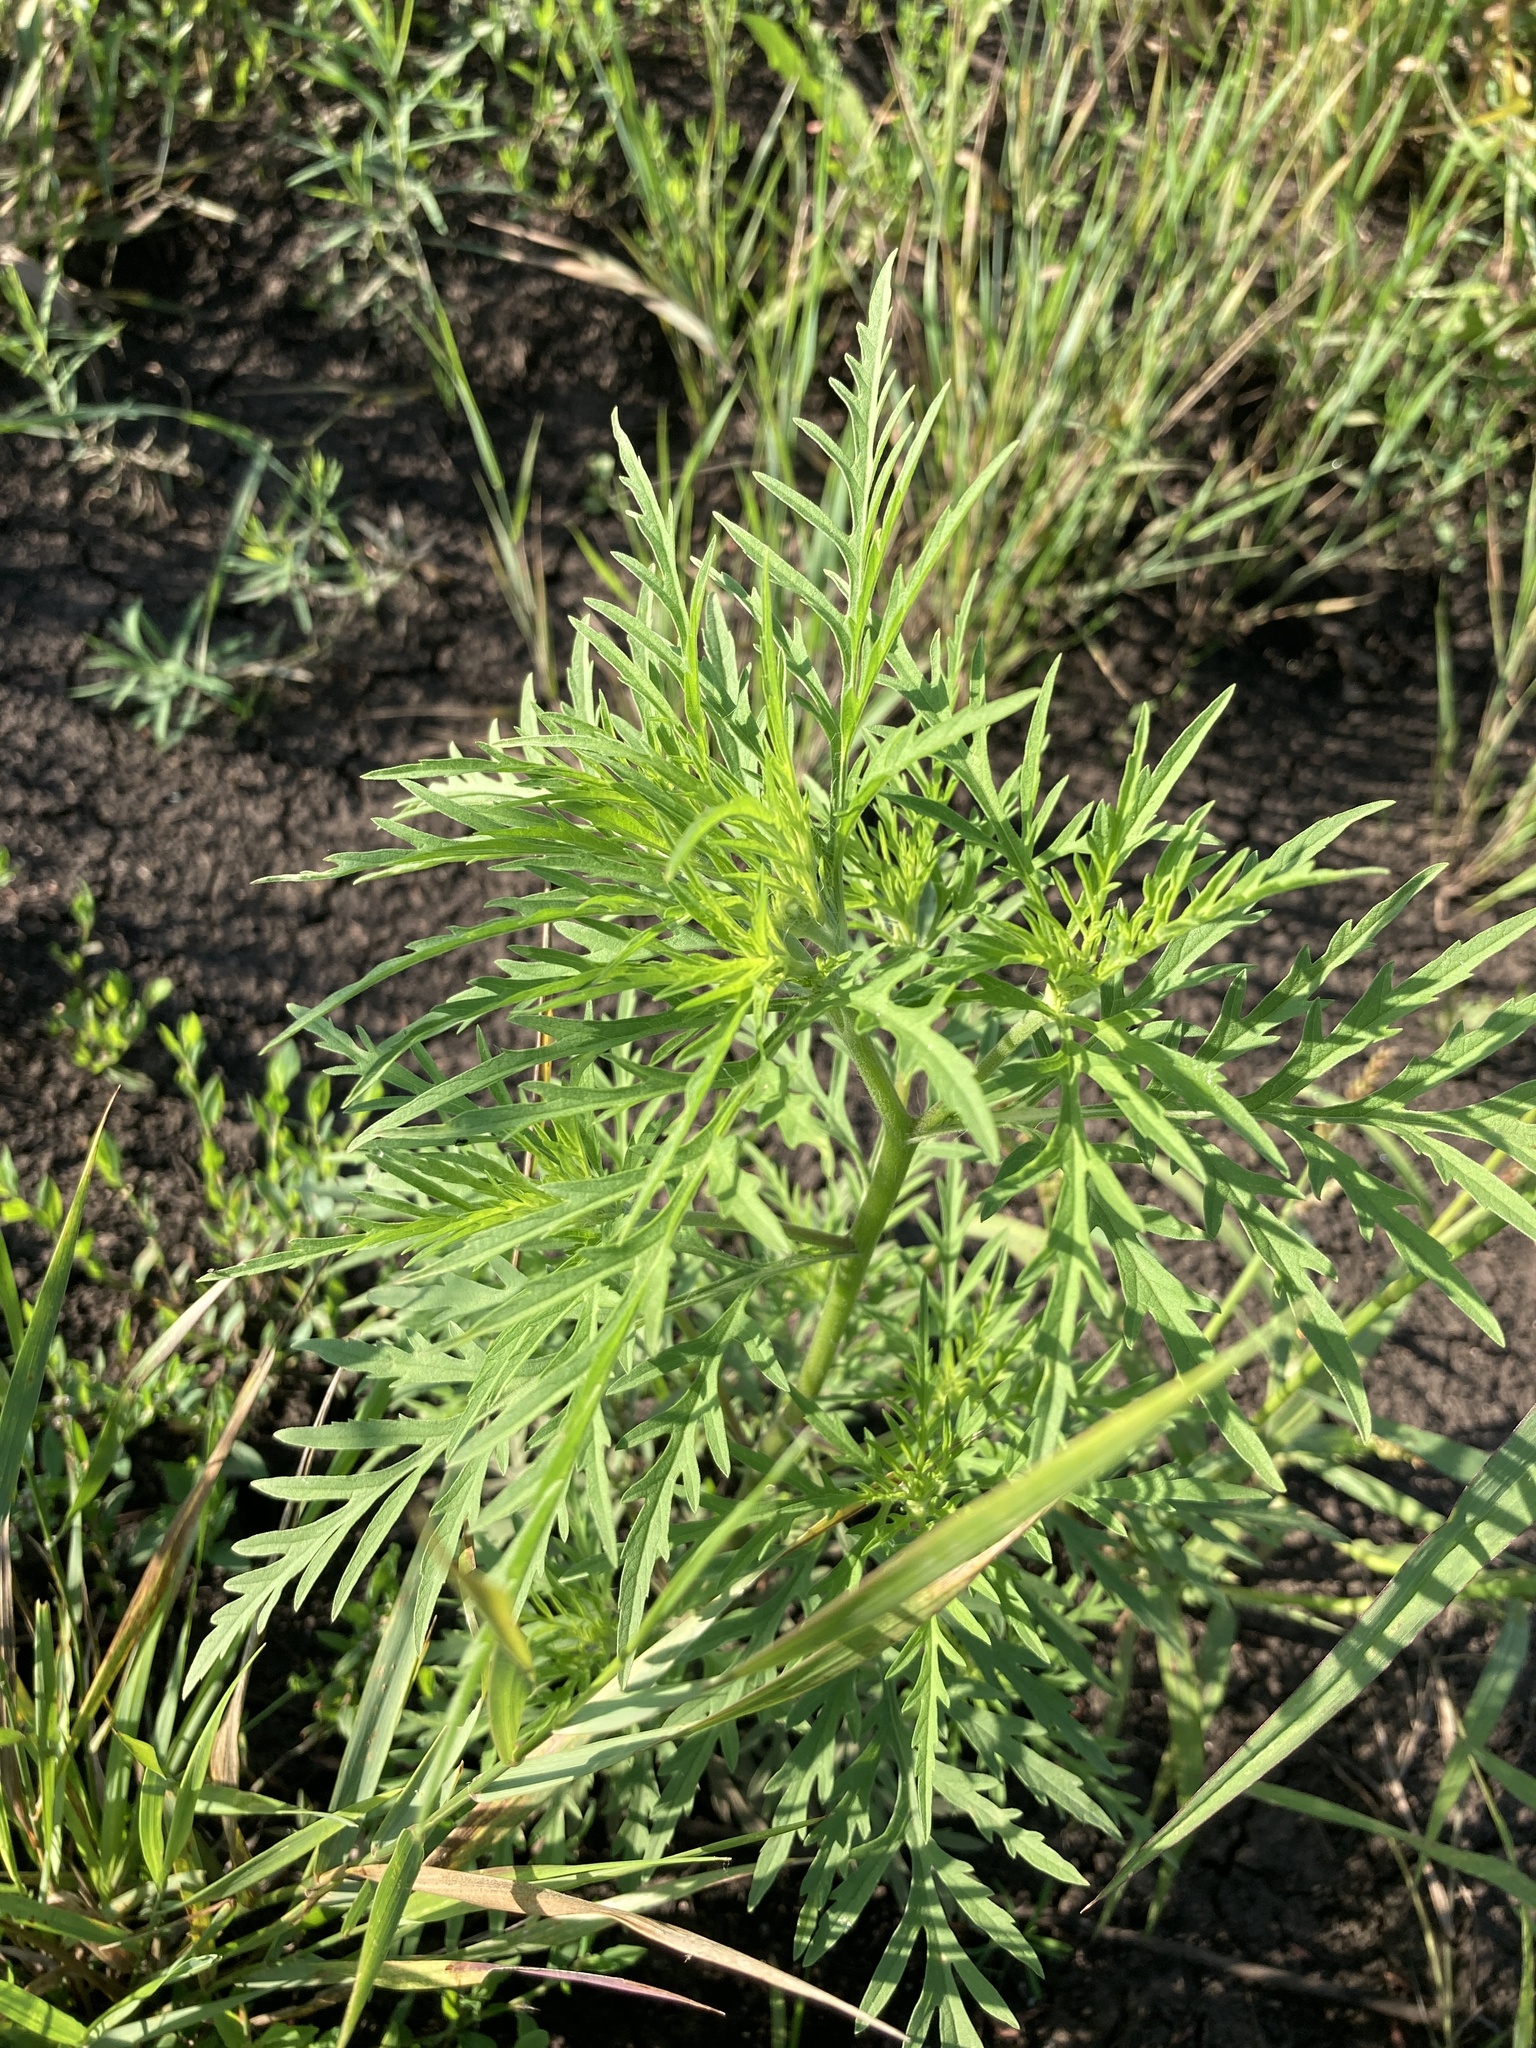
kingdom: Plantae
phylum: Tracheophyta
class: Magnoliopsida
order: Asterales
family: Asteraceae
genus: Ambrosia
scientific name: Ambrosia artemisiifolia
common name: Annual ragweed
